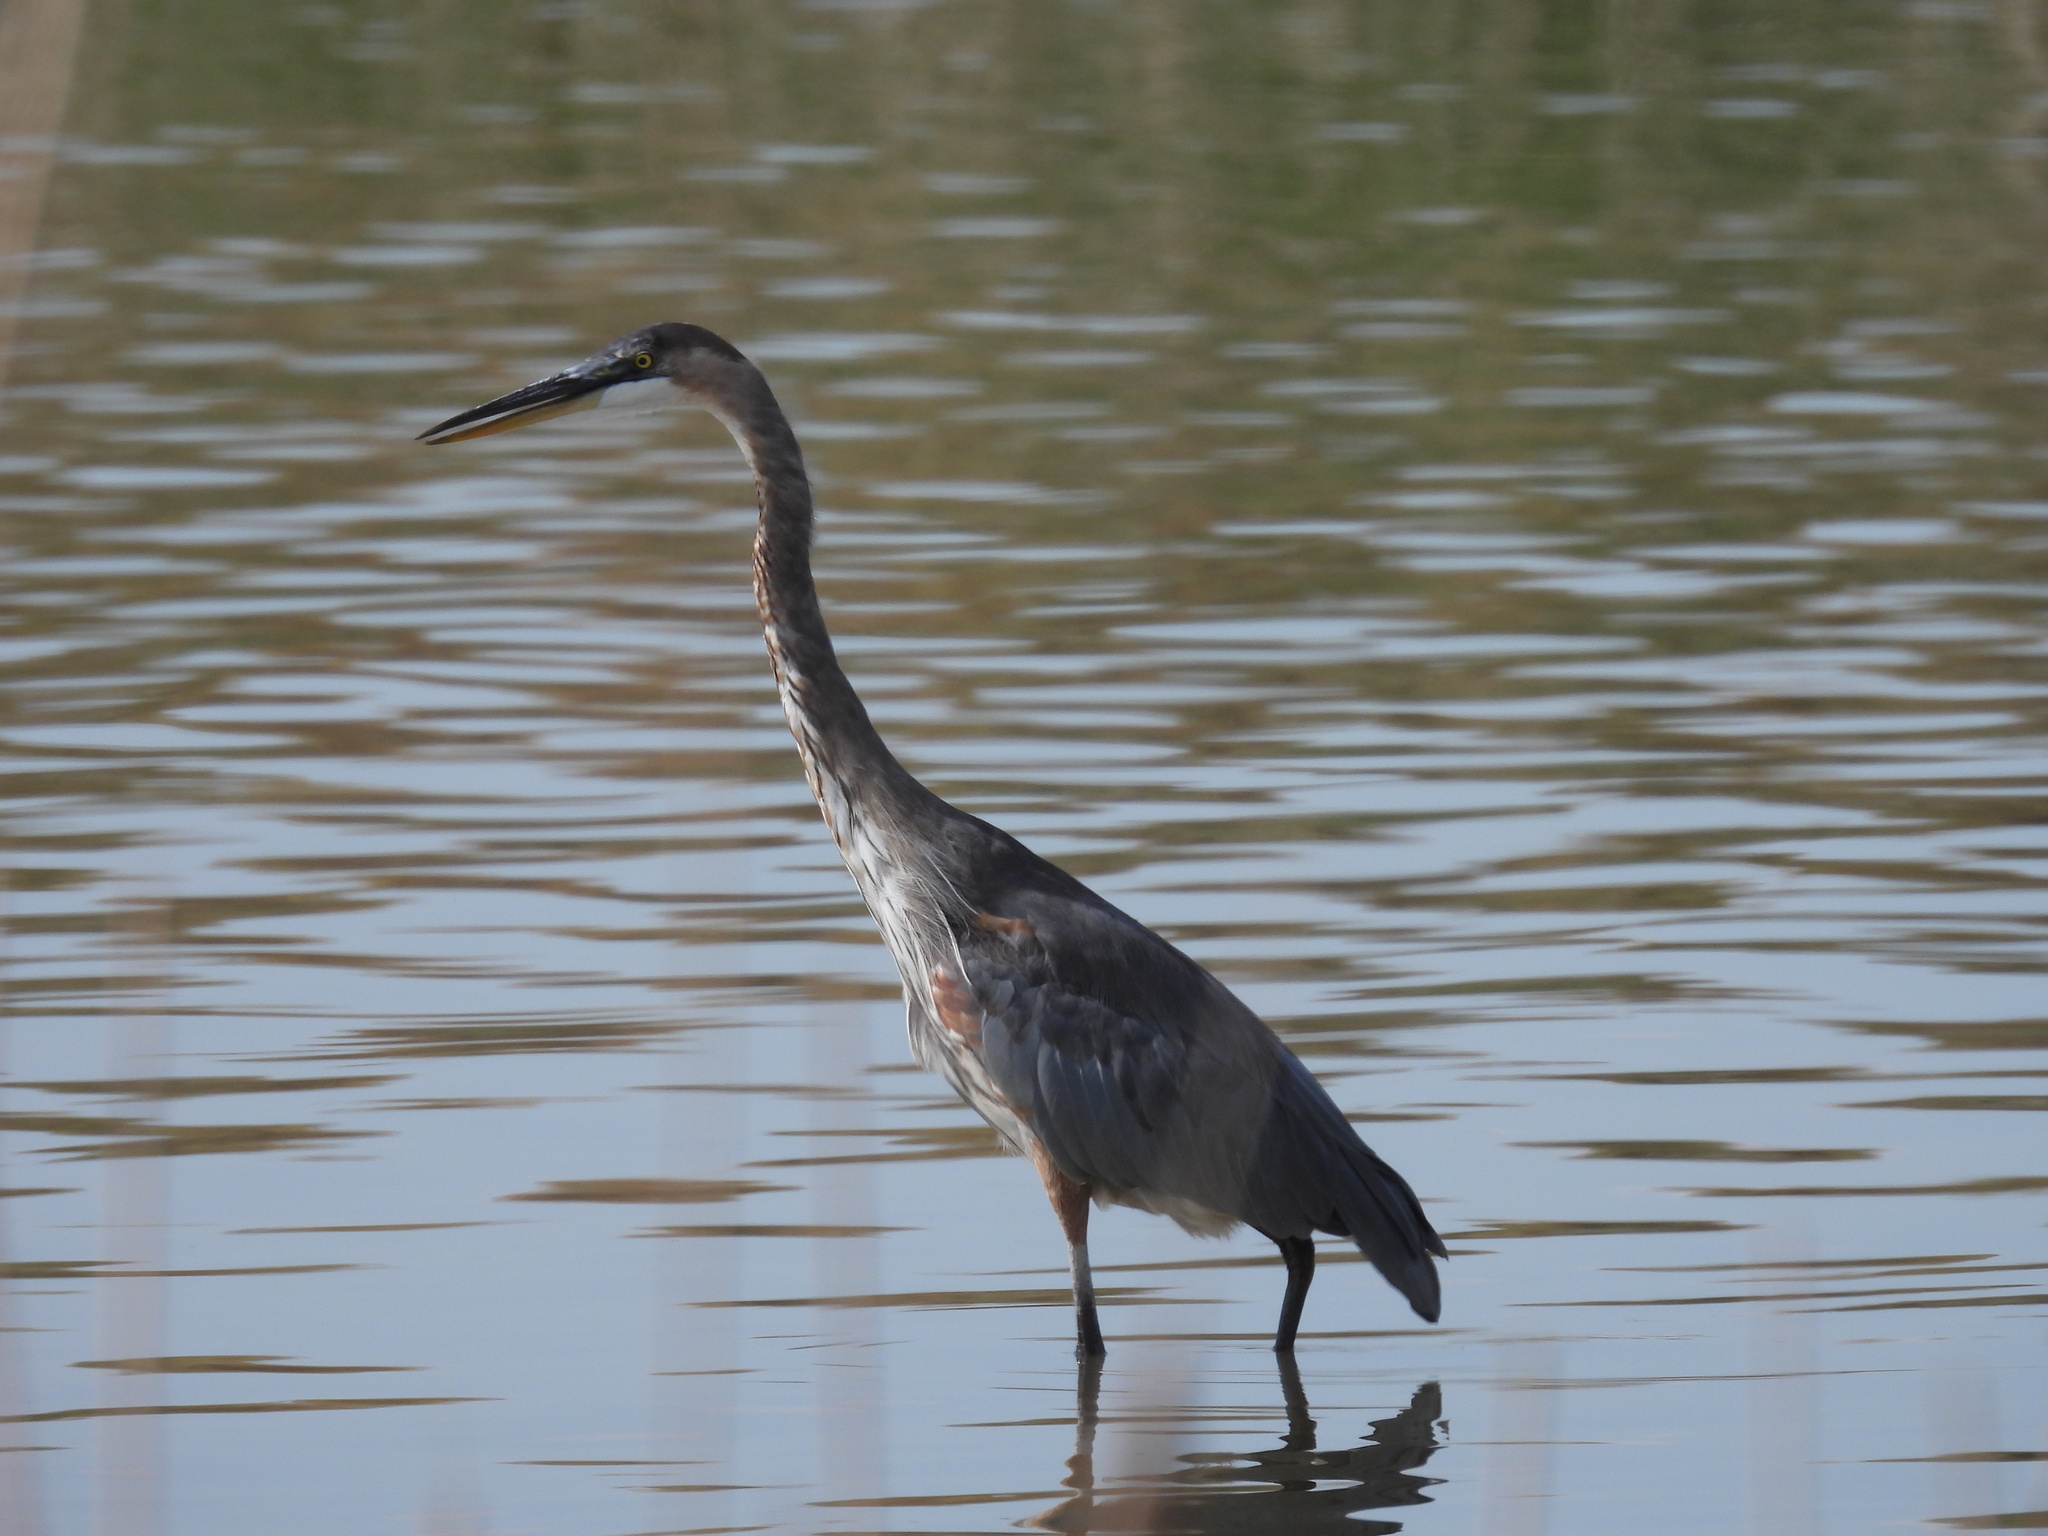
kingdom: Animalia
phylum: Chordata
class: Aves
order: Pelecaniformes
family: Ardeidae
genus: Ardea
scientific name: Ardea herodias
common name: Great blue heron
